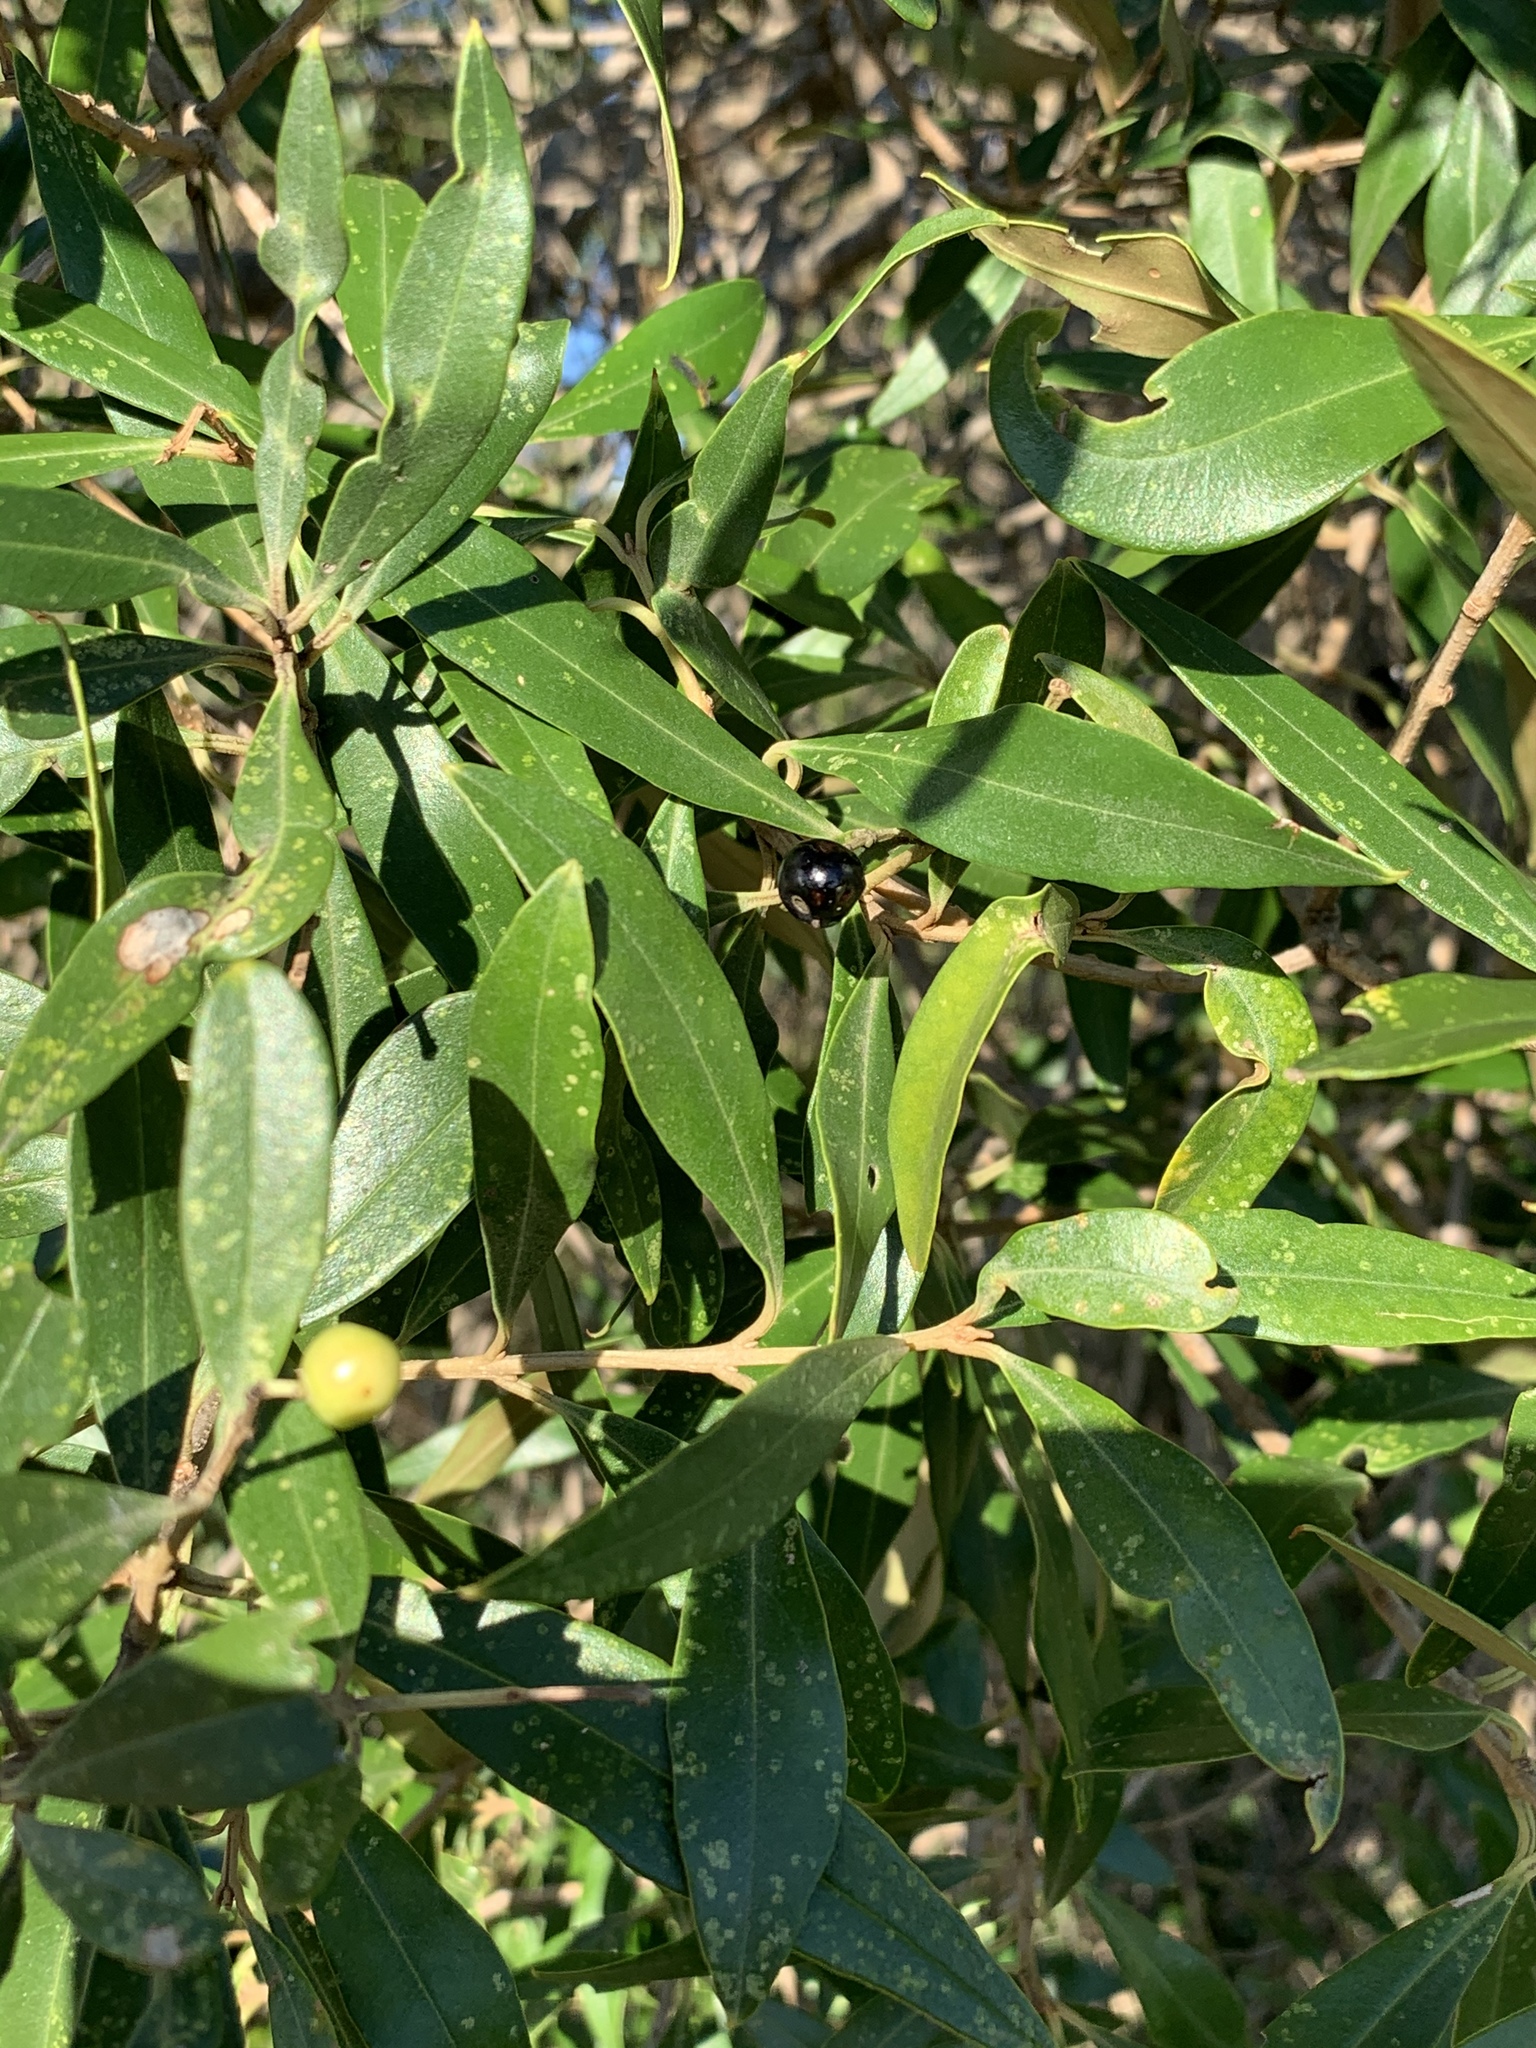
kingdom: Plantae
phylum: Tracheophyta
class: Magnoliopsida
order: Lamiales
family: Oleaceae
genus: Olea
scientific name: Olea europaea
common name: Olive
